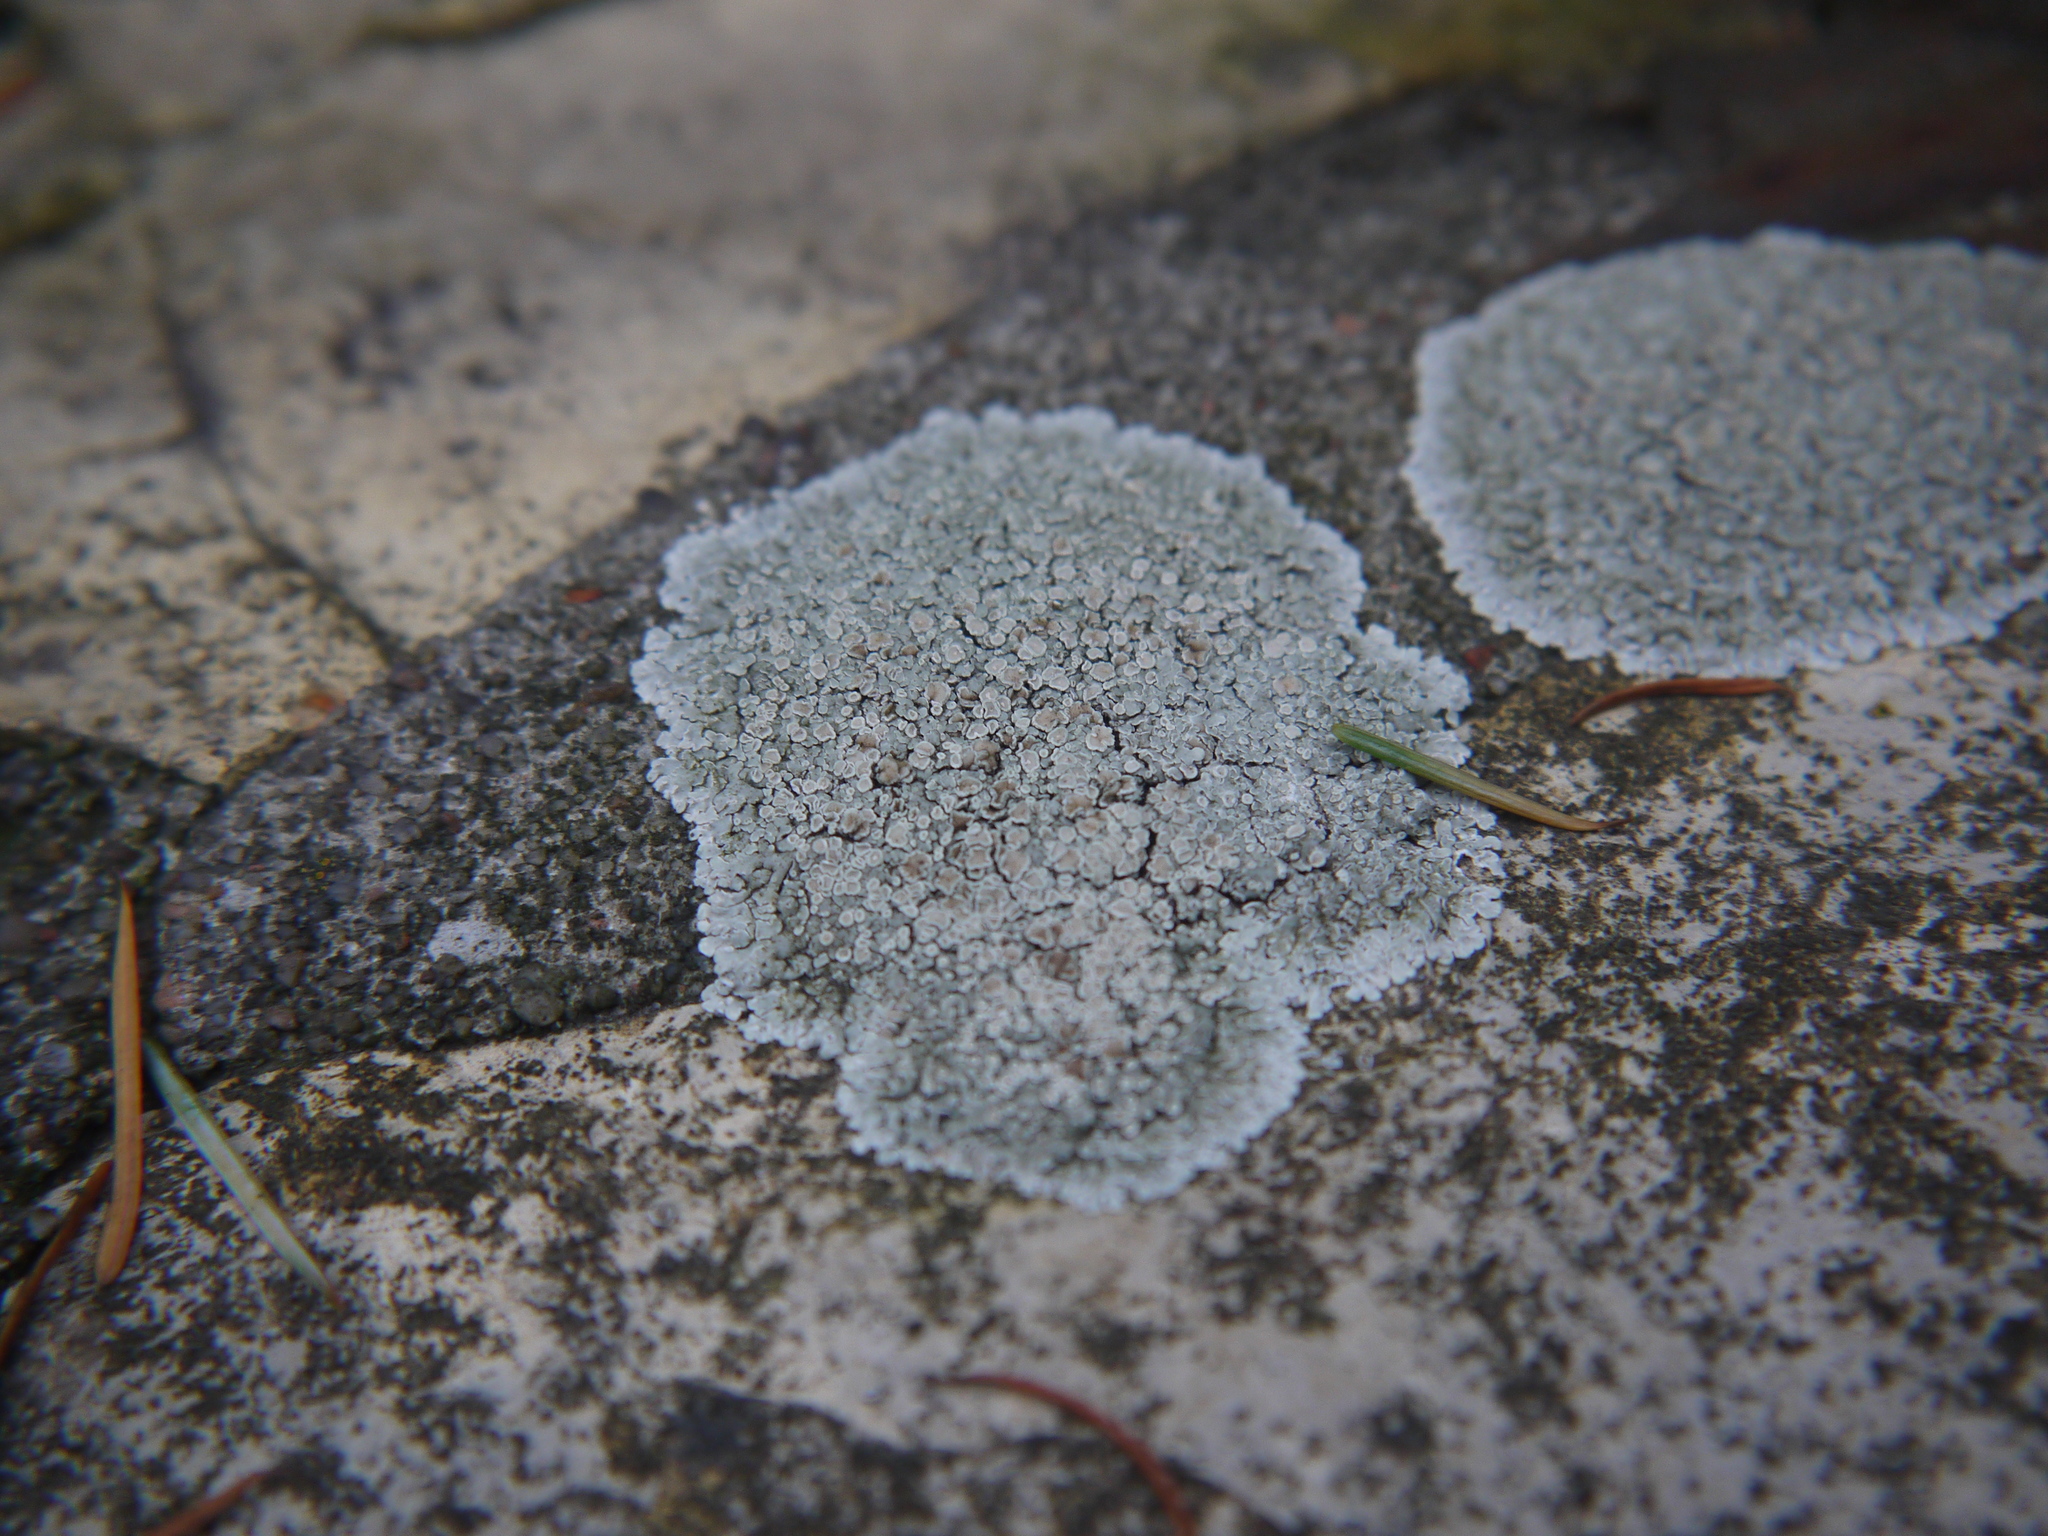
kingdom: Fungi
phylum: Ascomycota
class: Lecanoromycetes
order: Lecanorales
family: Lecanoraceae
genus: Protoparmeliopsis
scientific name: Protoparmeliopsis muralis
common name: Stonewall rim lichen
